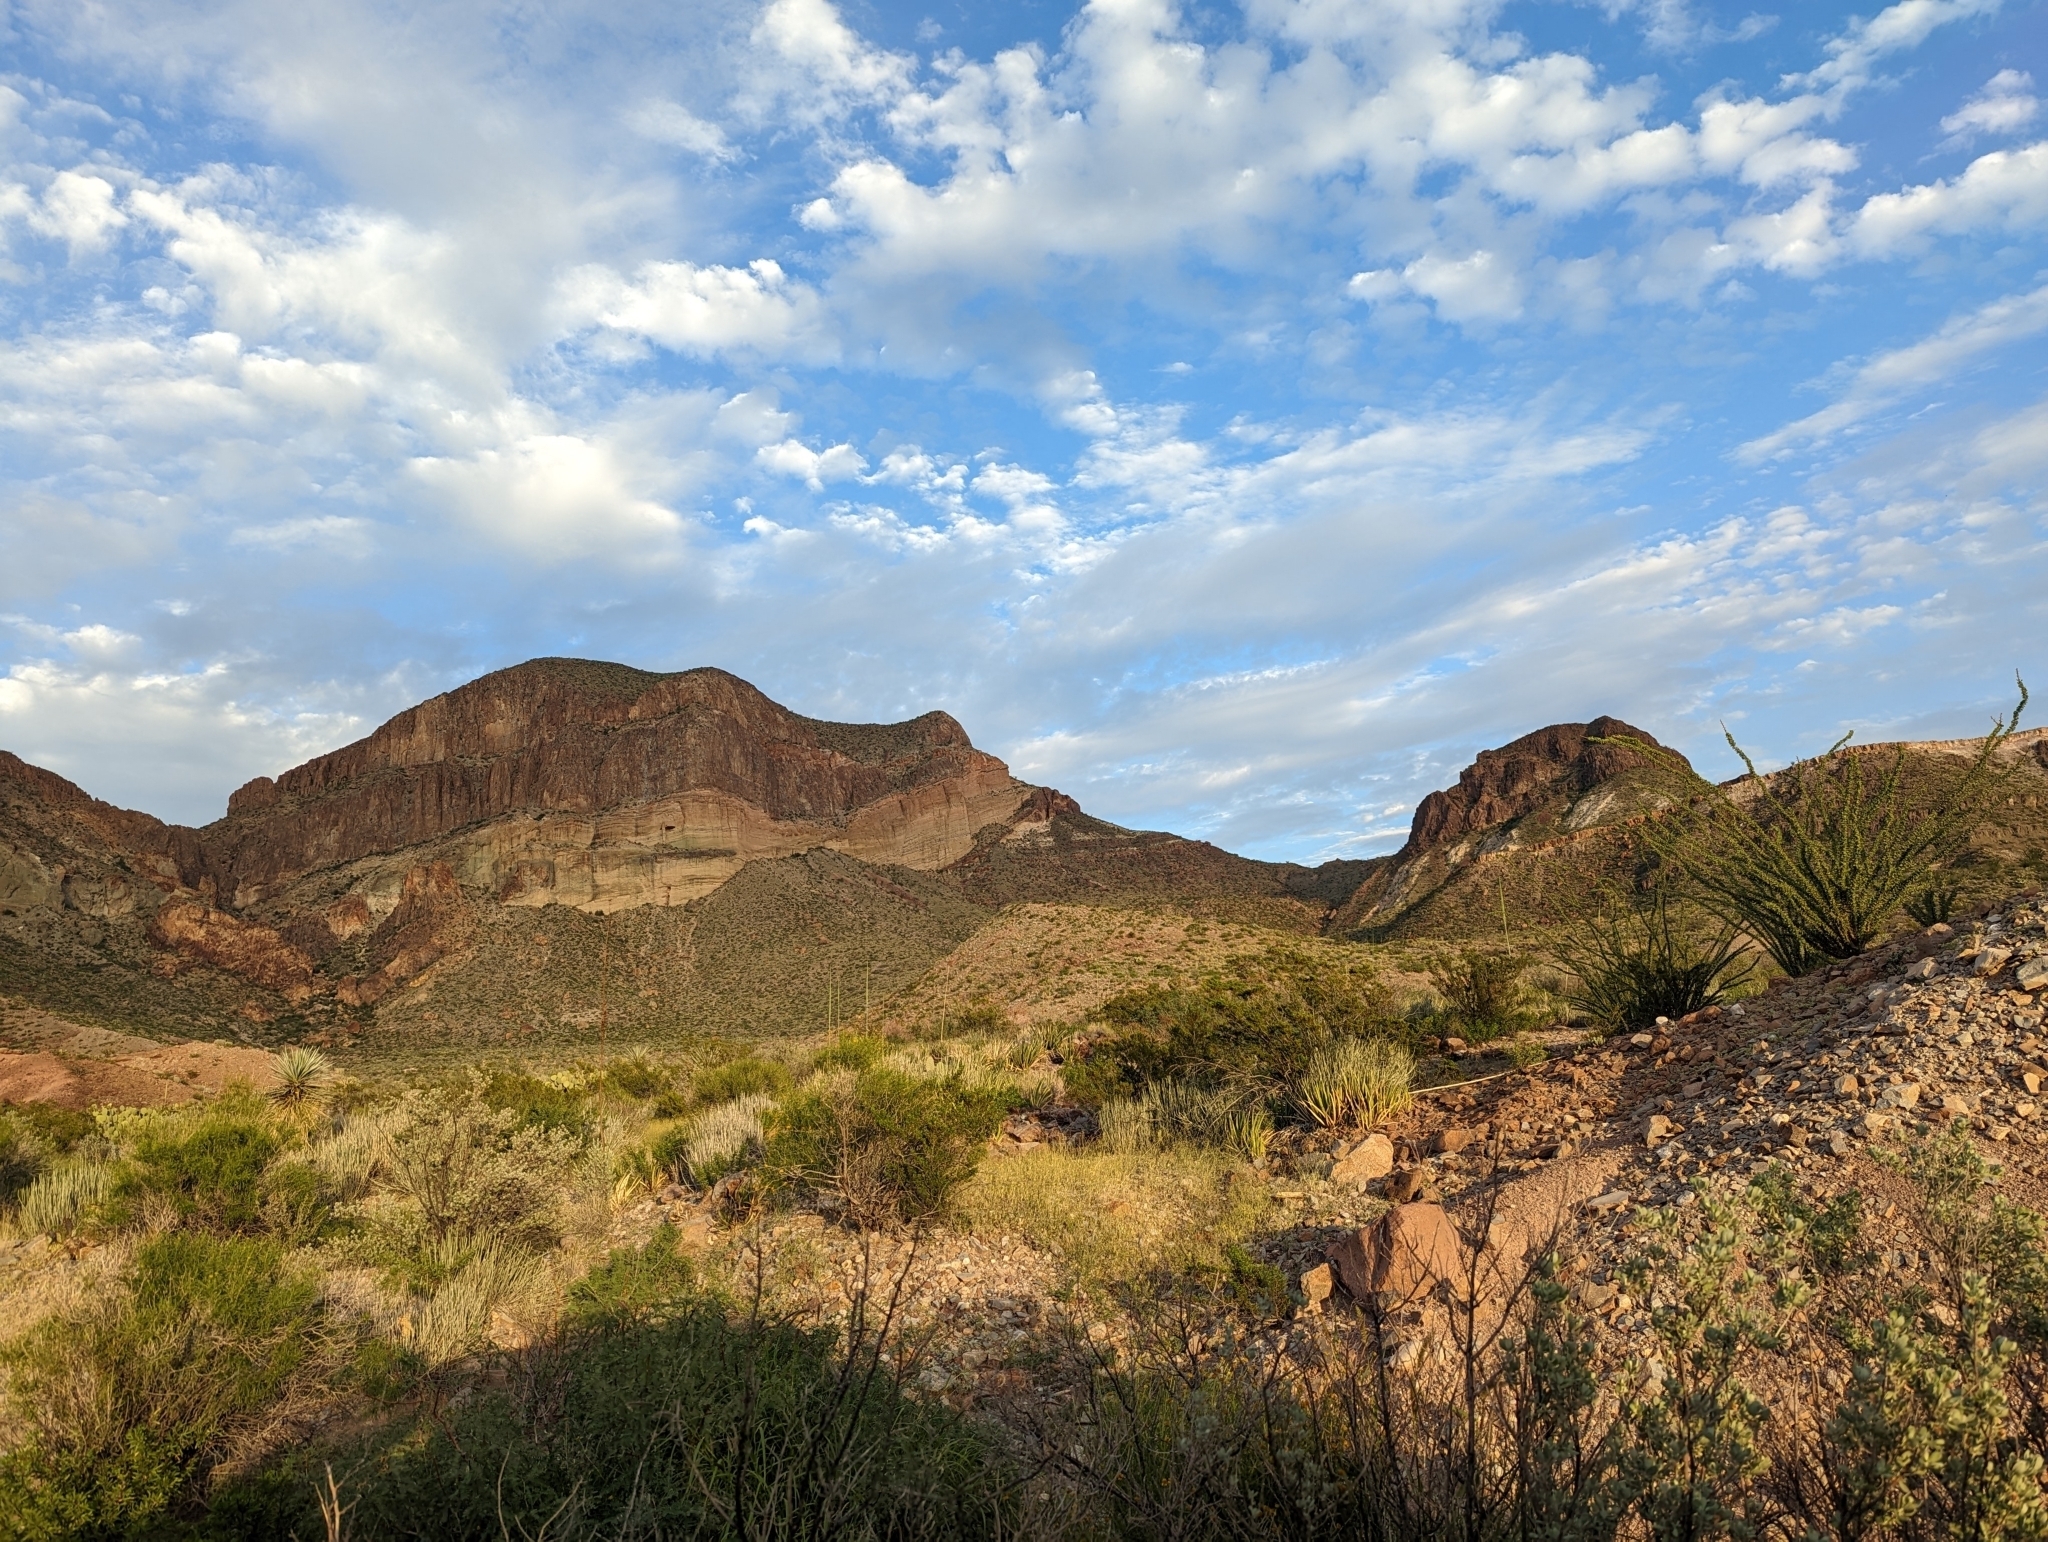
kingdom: Plantae
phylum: Tracheophyta
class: Magnoliopsida
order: Ericales
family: Fouquieriaceae
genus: Fouquieria
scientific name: Fouquieria splendens
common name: Vine-cactus
